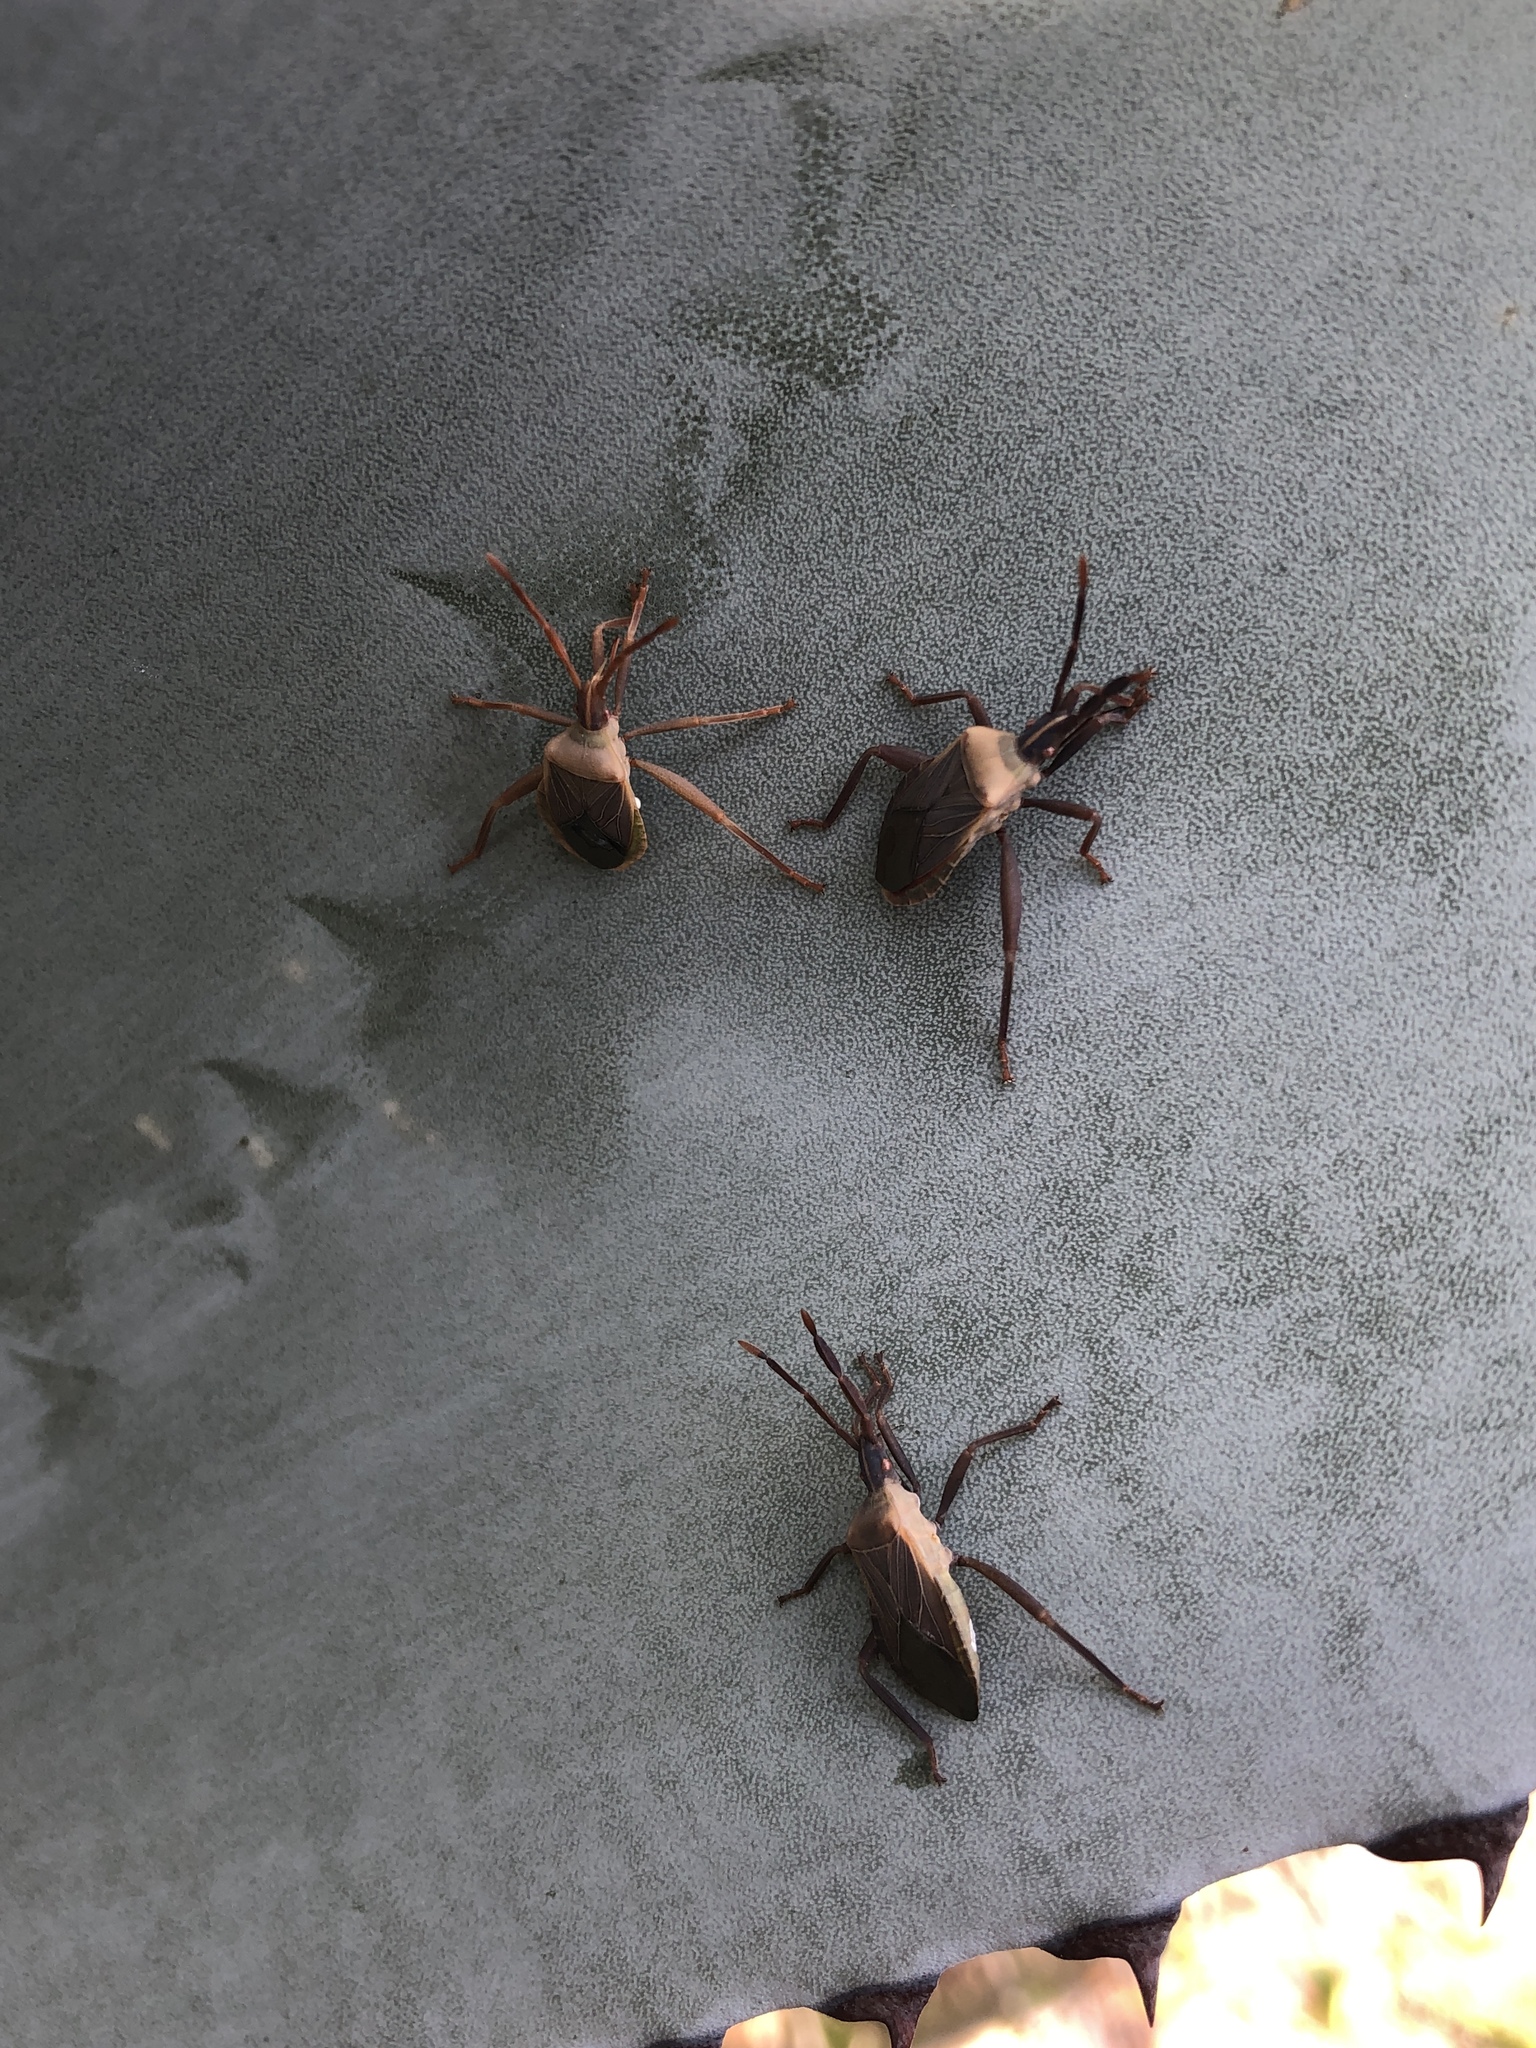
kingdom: Animalia
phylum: Arthropoda
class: Insecta
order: Hemiptera
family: Coreidae
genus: Chelinidea
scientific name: Chelinidea vittiger
